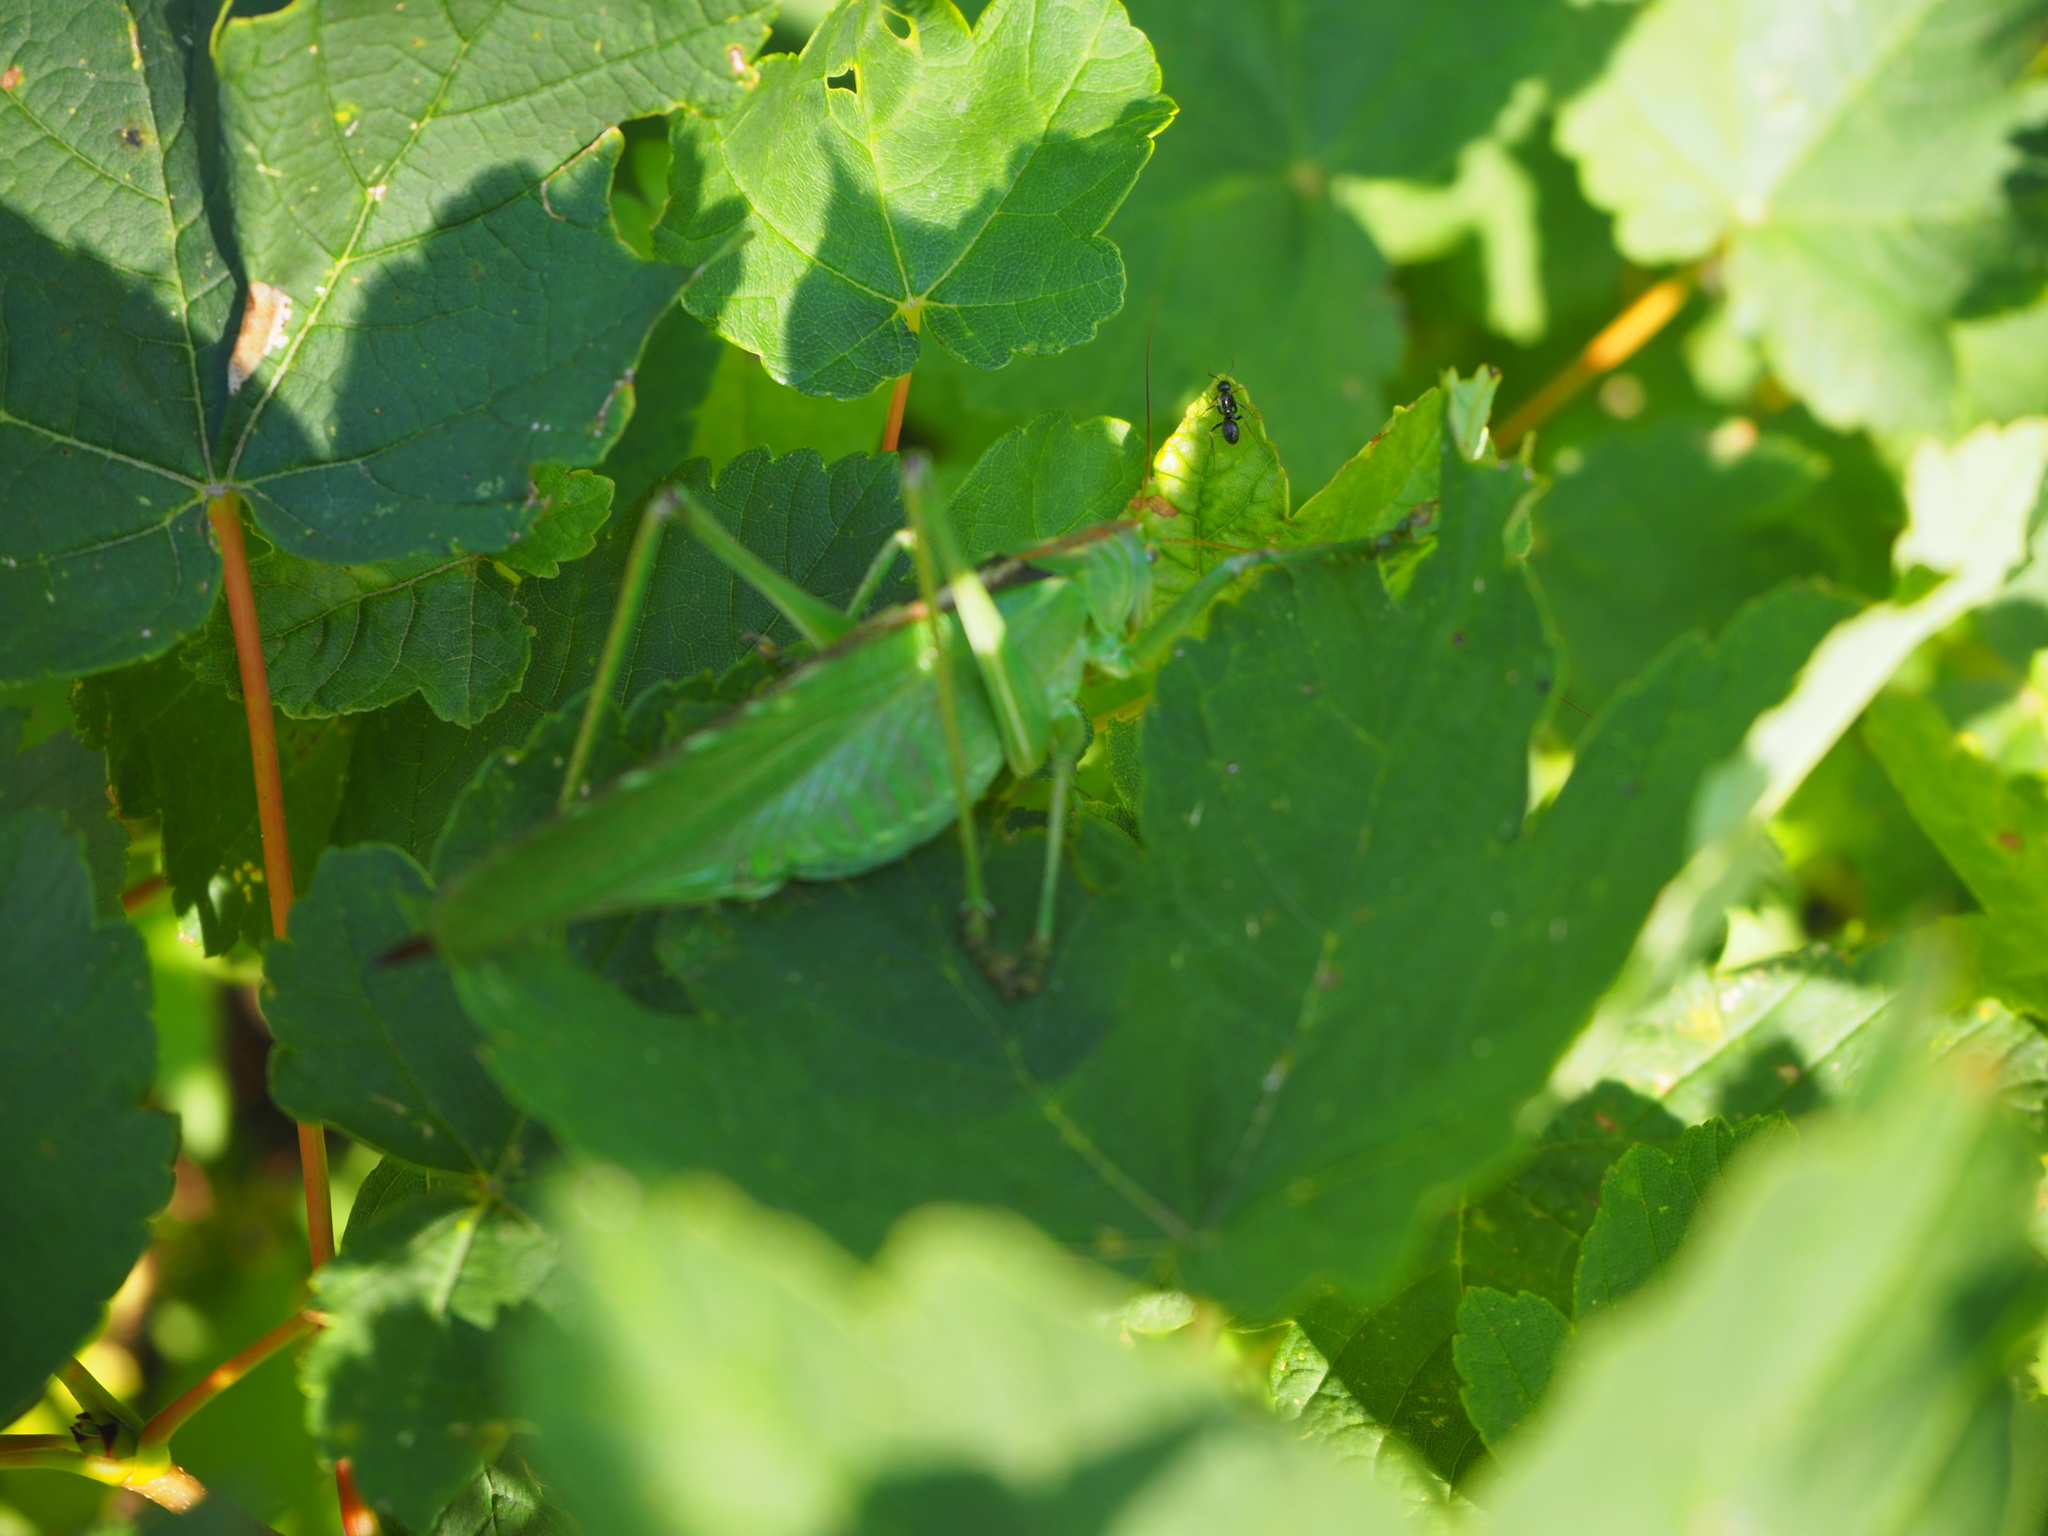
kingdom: Animalia
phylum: Arthropoda
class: Insecta
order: Orthoptera
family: Tettigoniidae
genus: Tettigonia
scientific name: Tettigonia viridissima
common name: Great green bush-cricket
